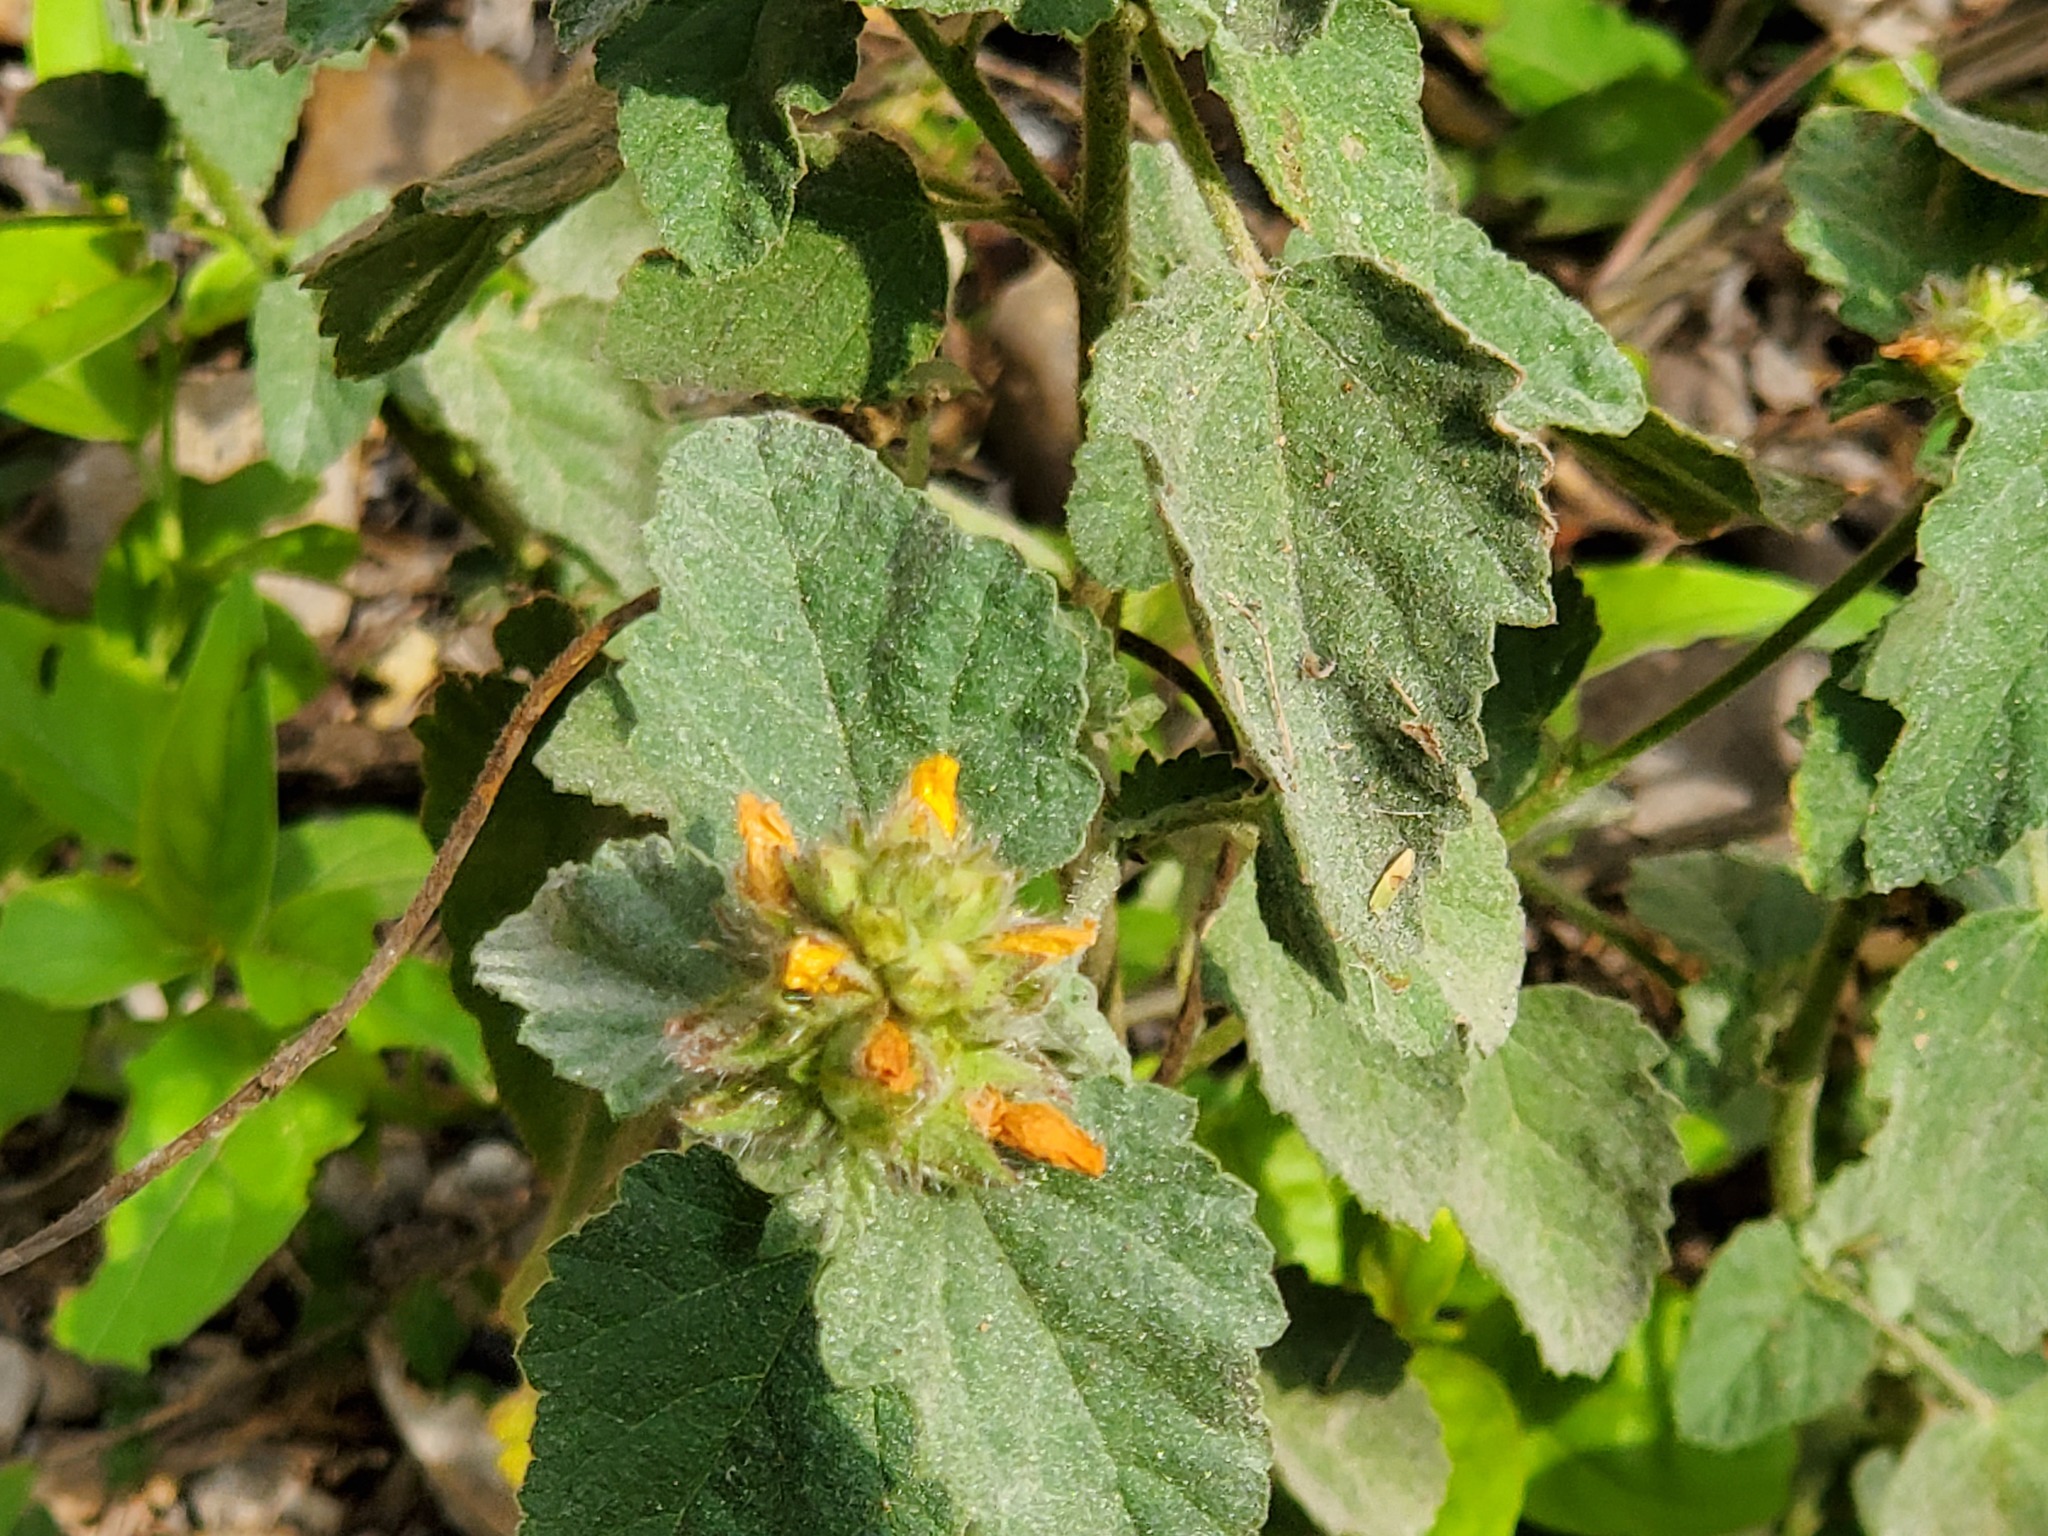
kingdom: Plantae
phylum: Tracheophyta
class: Magnoliopsida
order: Malvales
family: Malvaceae
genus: Malvastrum
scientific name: Malvastrum americanum
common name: Spiked malvastrum
